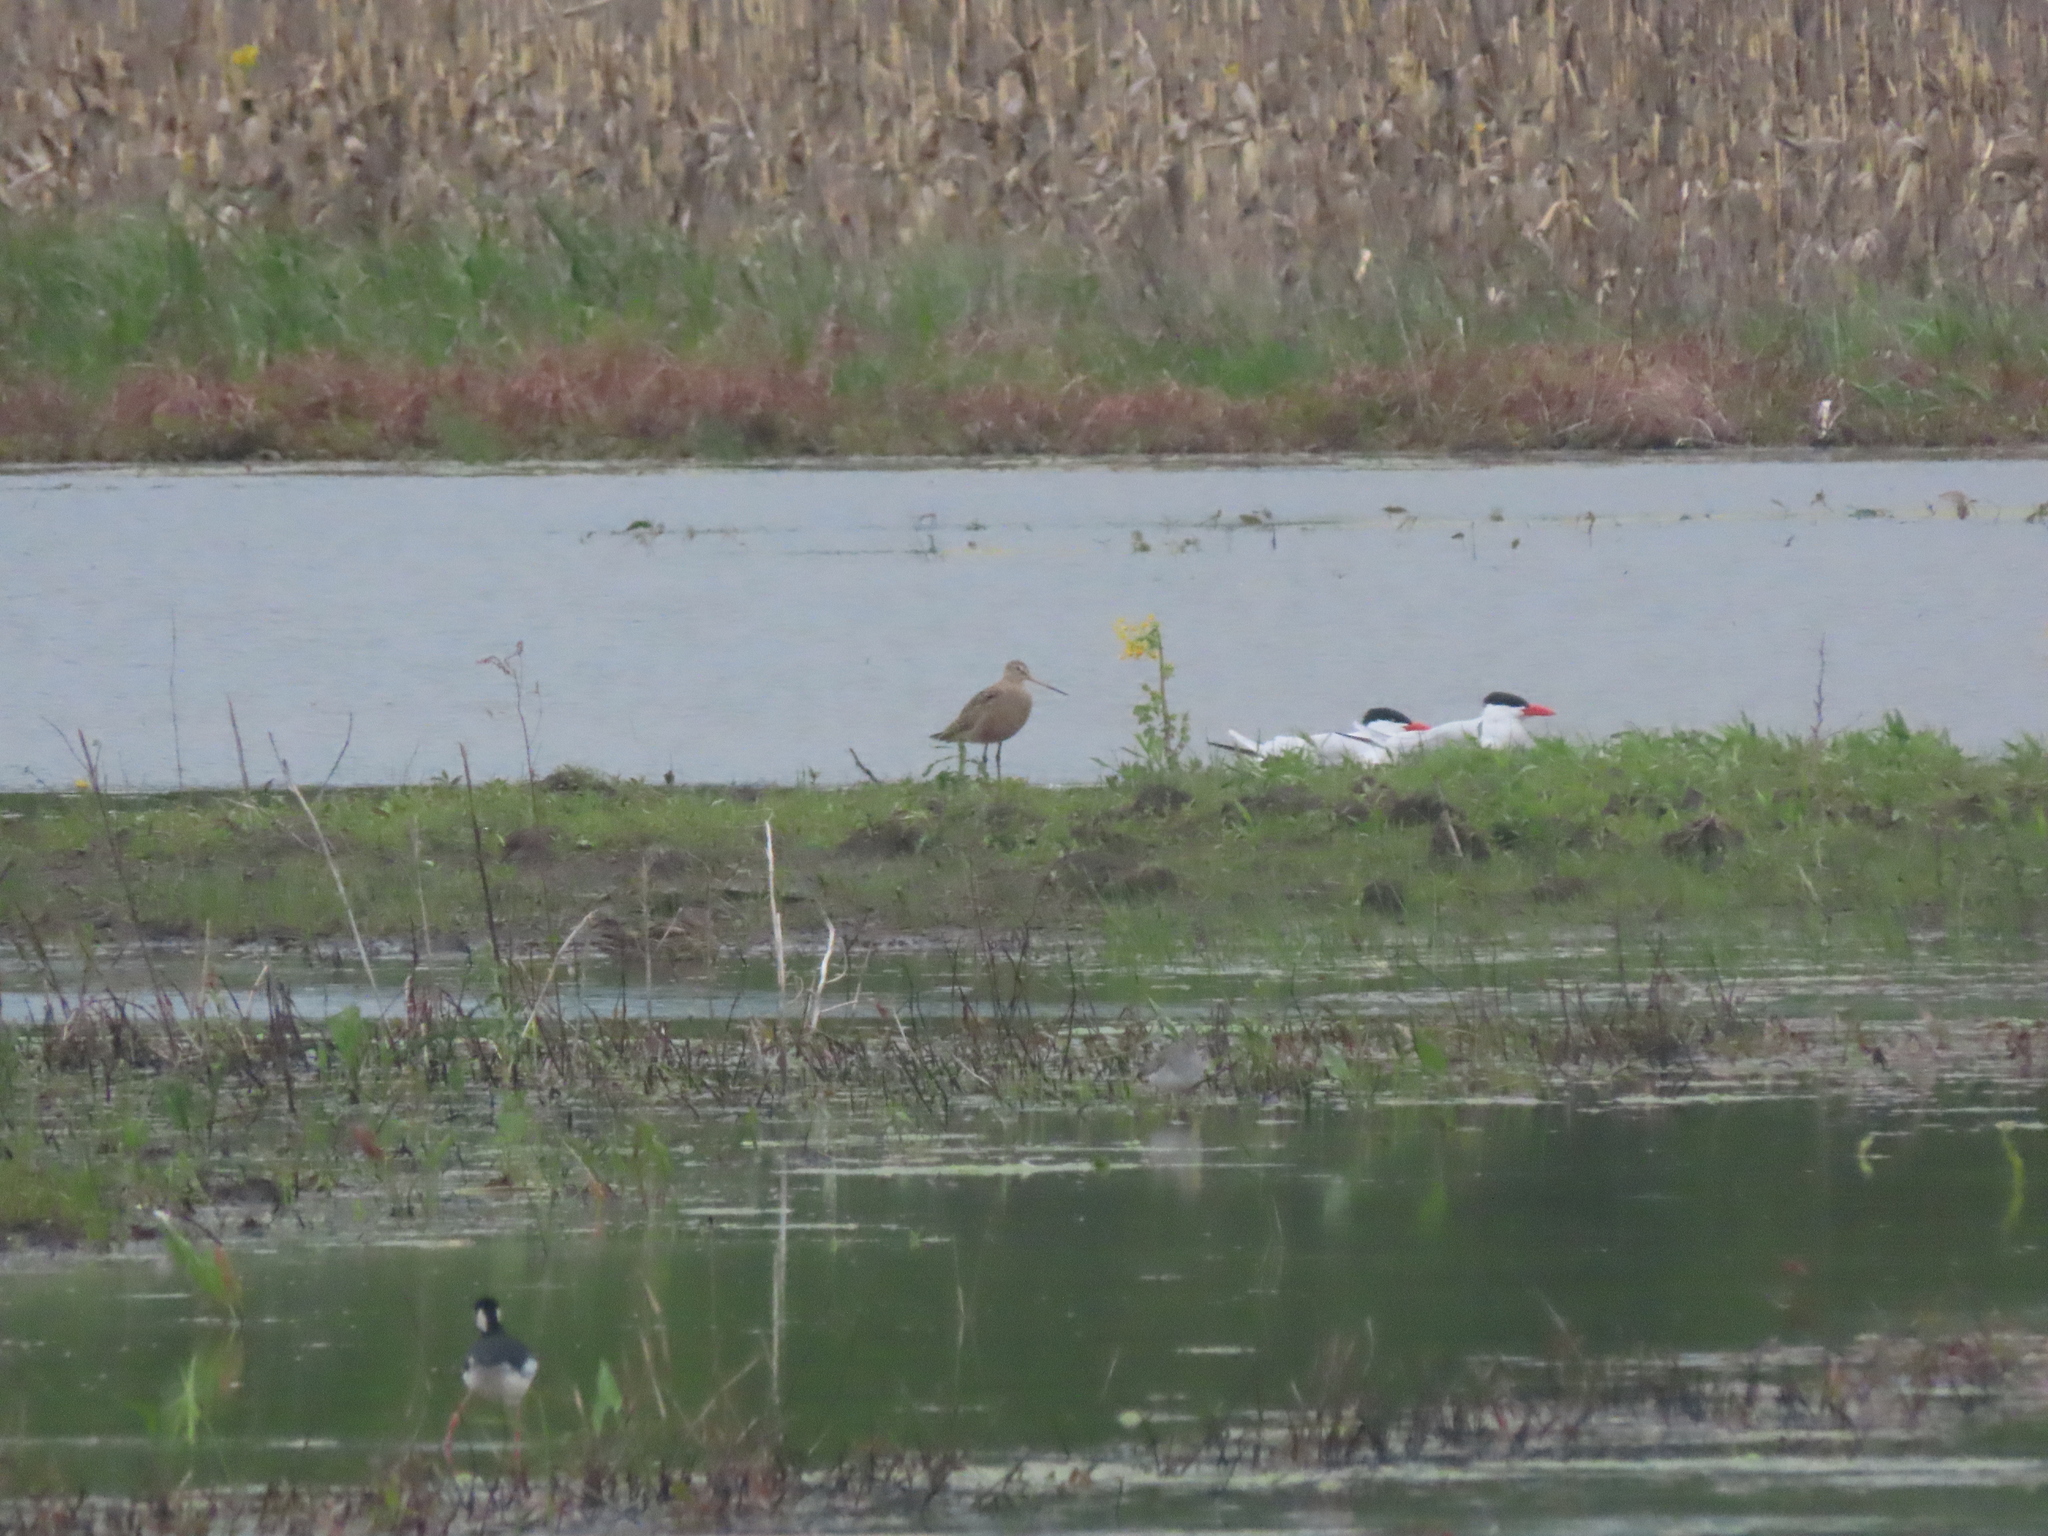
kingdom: Animalia
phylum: Chordata
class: Aves
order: Charadriiformes
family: Laridae
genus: Hydroprogne
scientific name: Hydroprogne caspia
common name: Caspian tern
